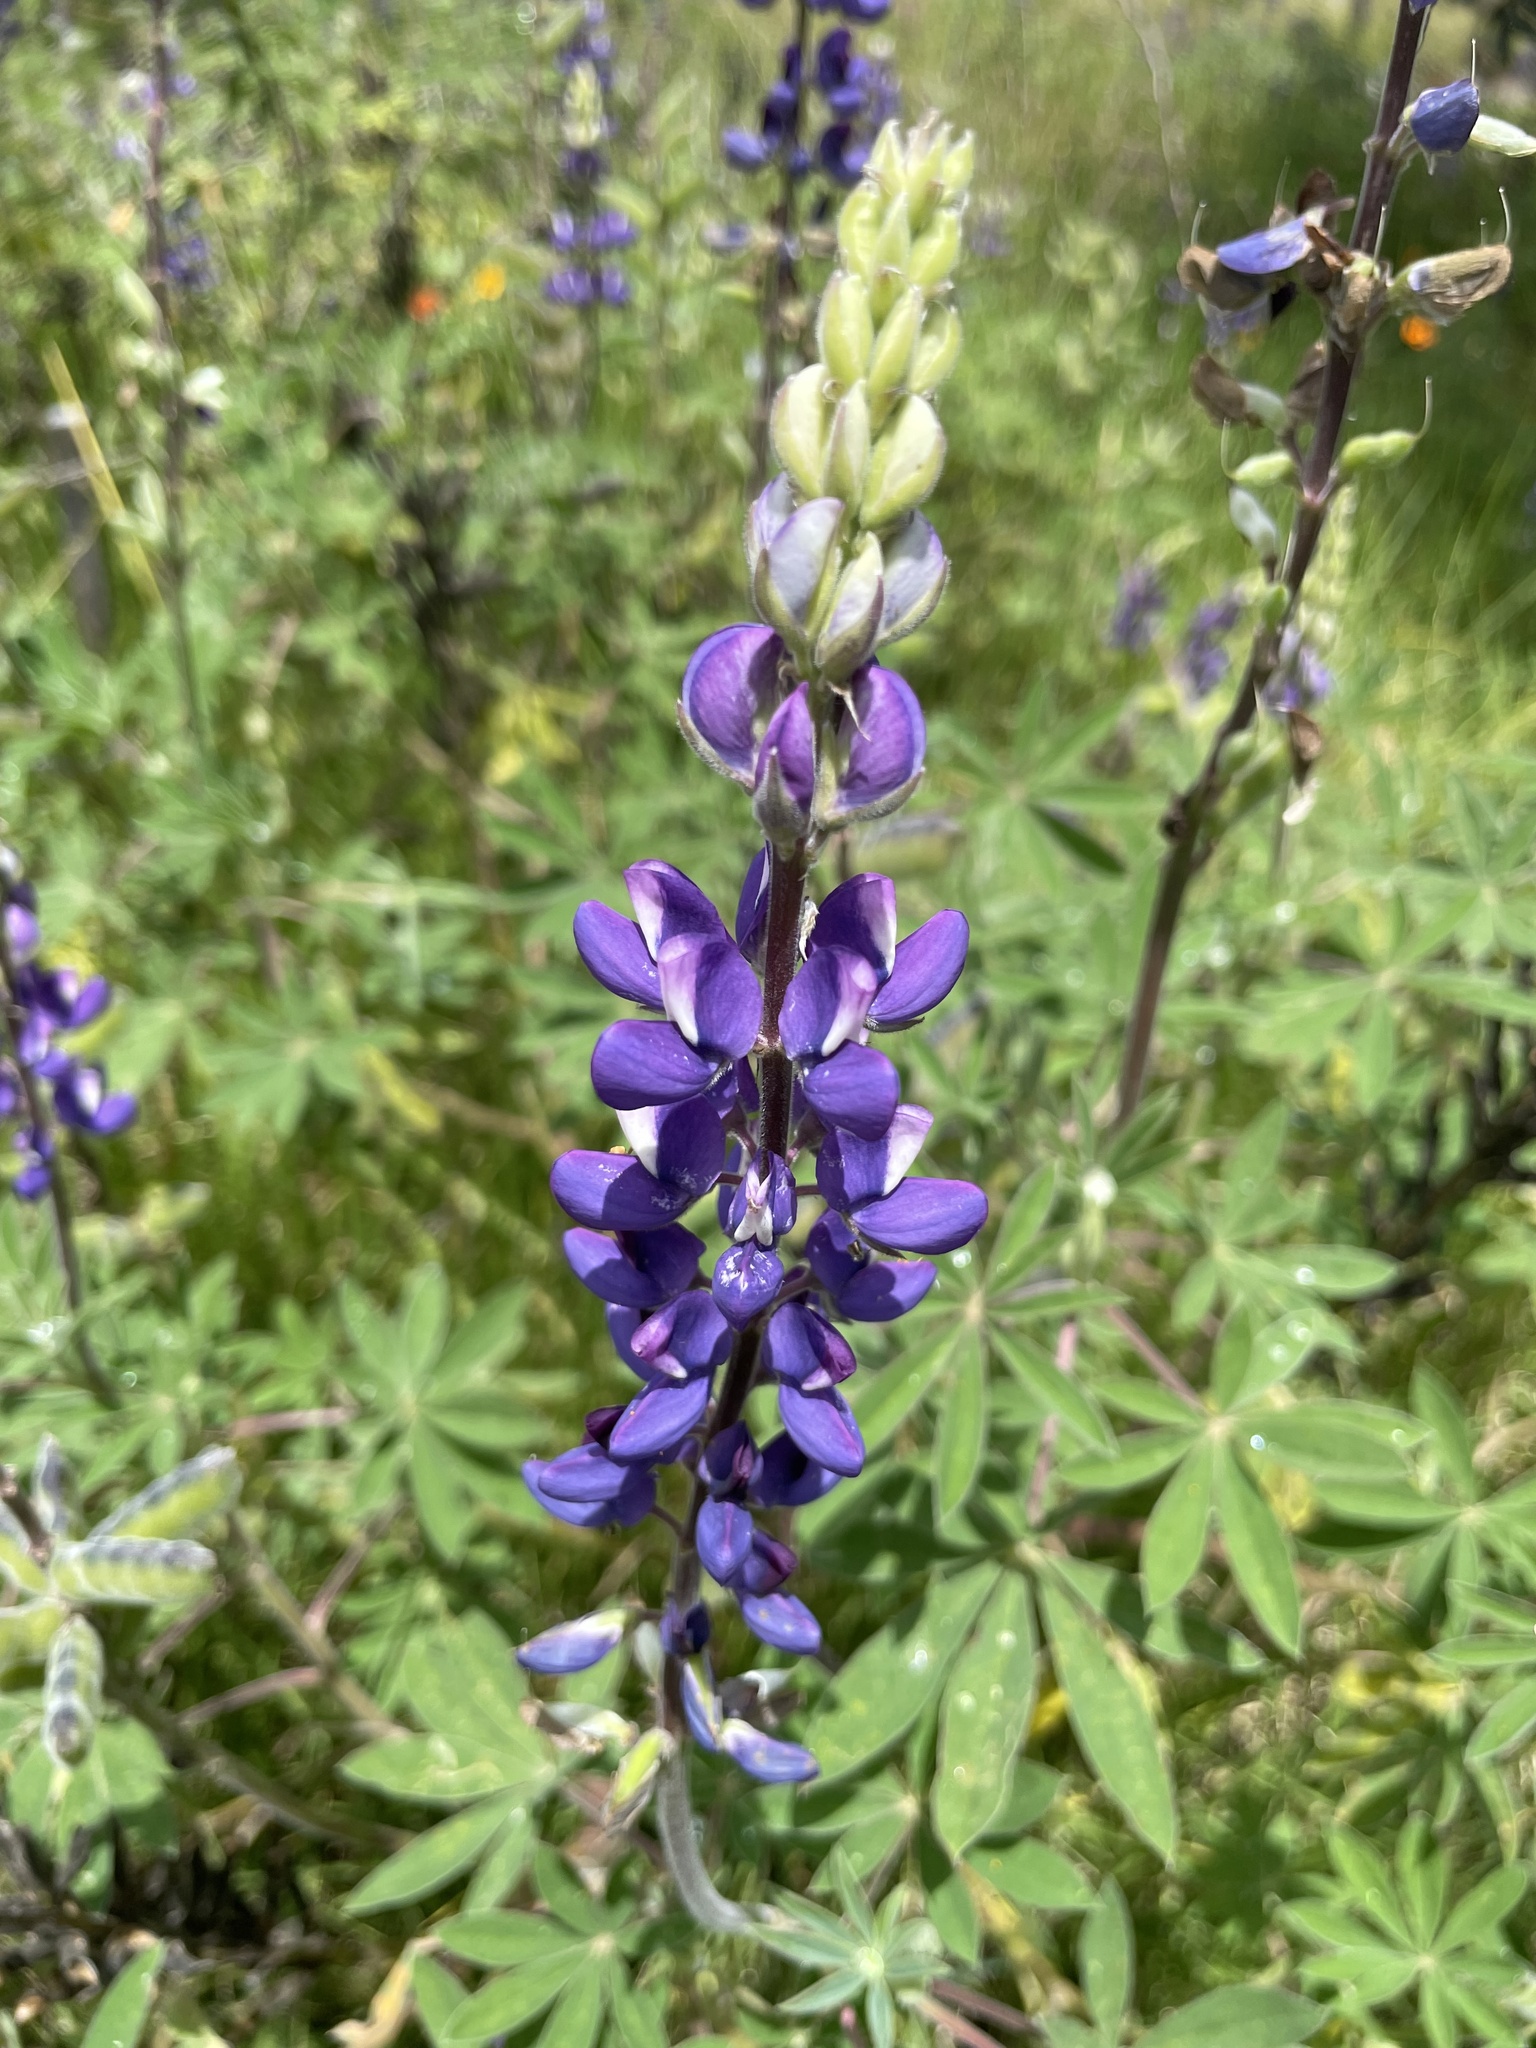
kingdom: Plantae
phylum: Tracheophyta
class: Magnoliopsida
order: Fabales
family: Fabaceae
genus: Lupinus
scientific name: Lupinus pubescens
